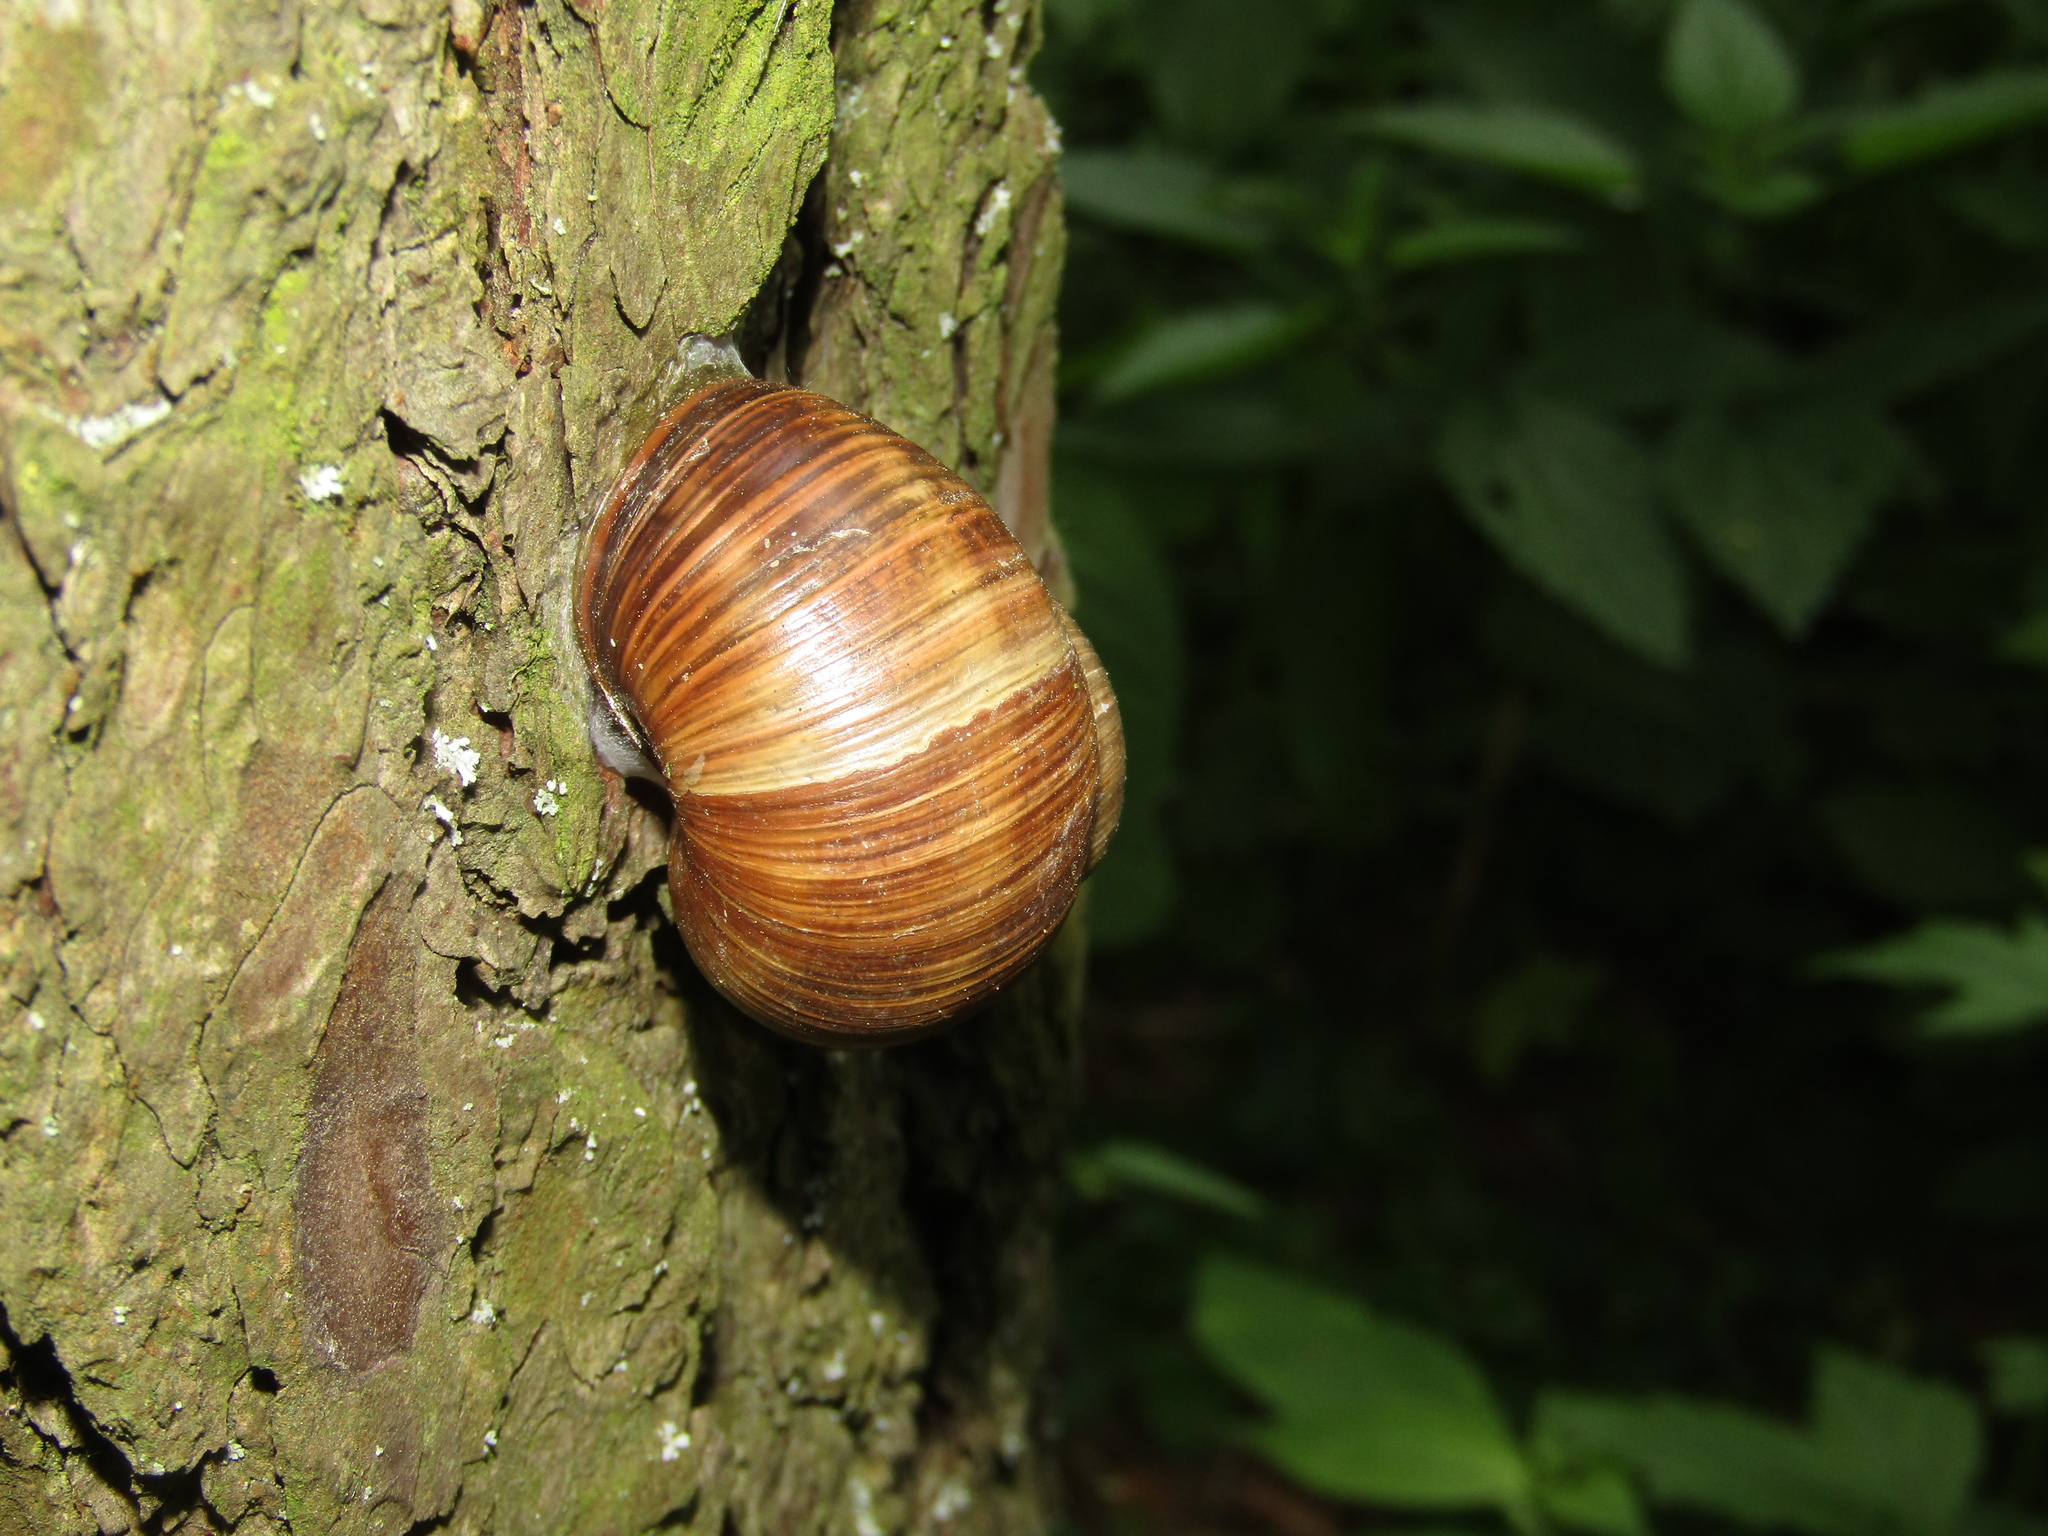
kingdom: Animalia
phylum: Mollusca
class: Gastropoda
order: Stylommatophora
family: Helicidae
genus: Helix
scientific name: Helix pomatia
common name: Roman snail
